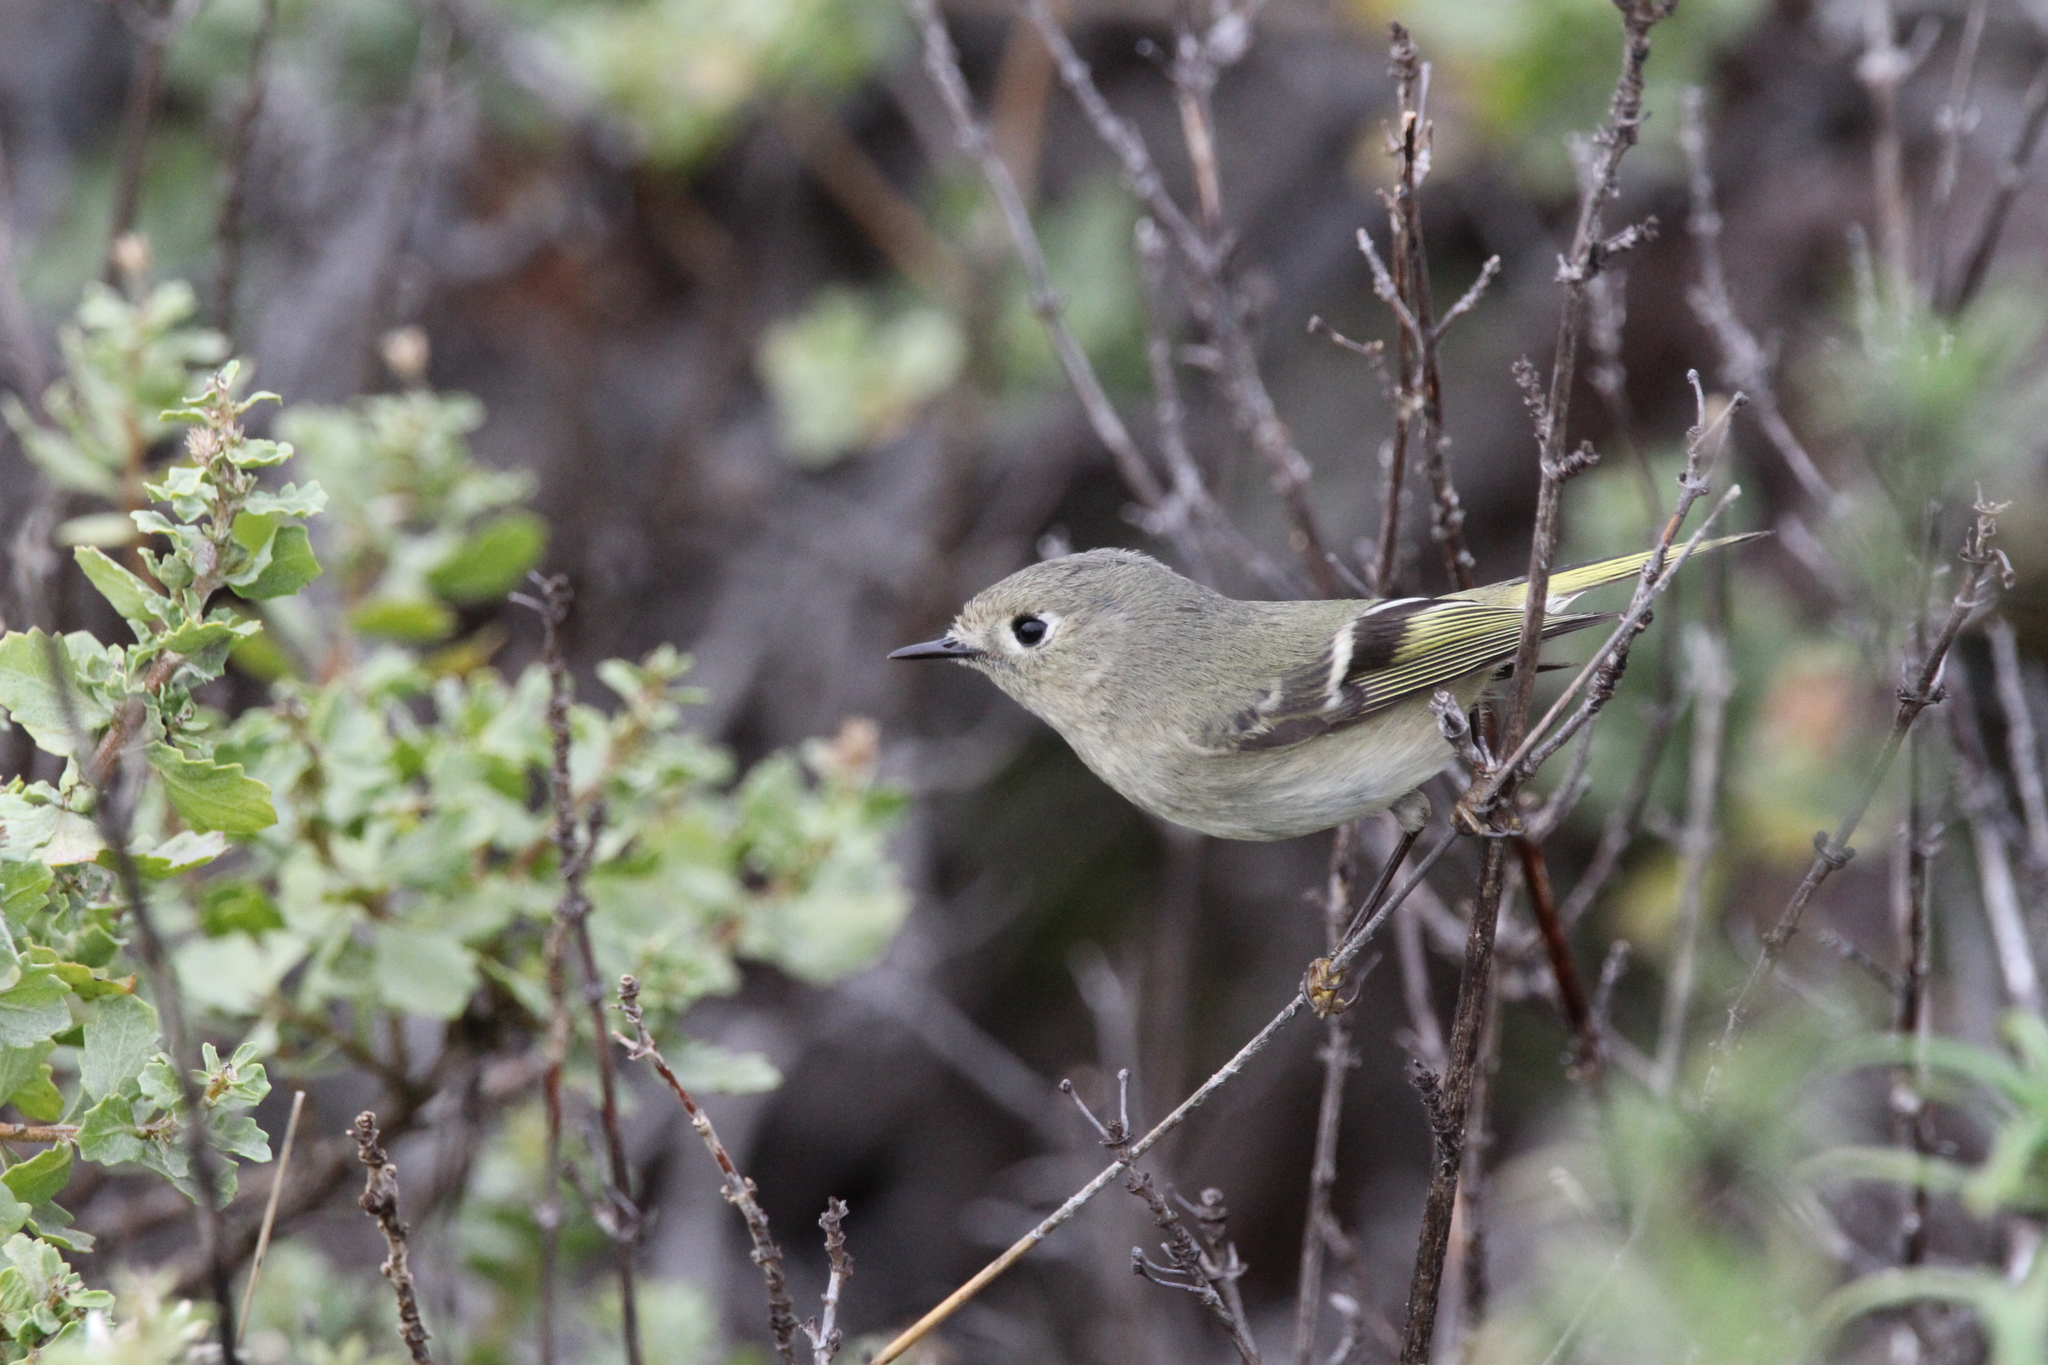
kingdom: Animalia
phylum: Chordata
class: Aves
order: Passeriformes
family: Regulidae
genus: Regulus
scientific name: Regulus calendula
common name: Ruby-crowned kinglet
